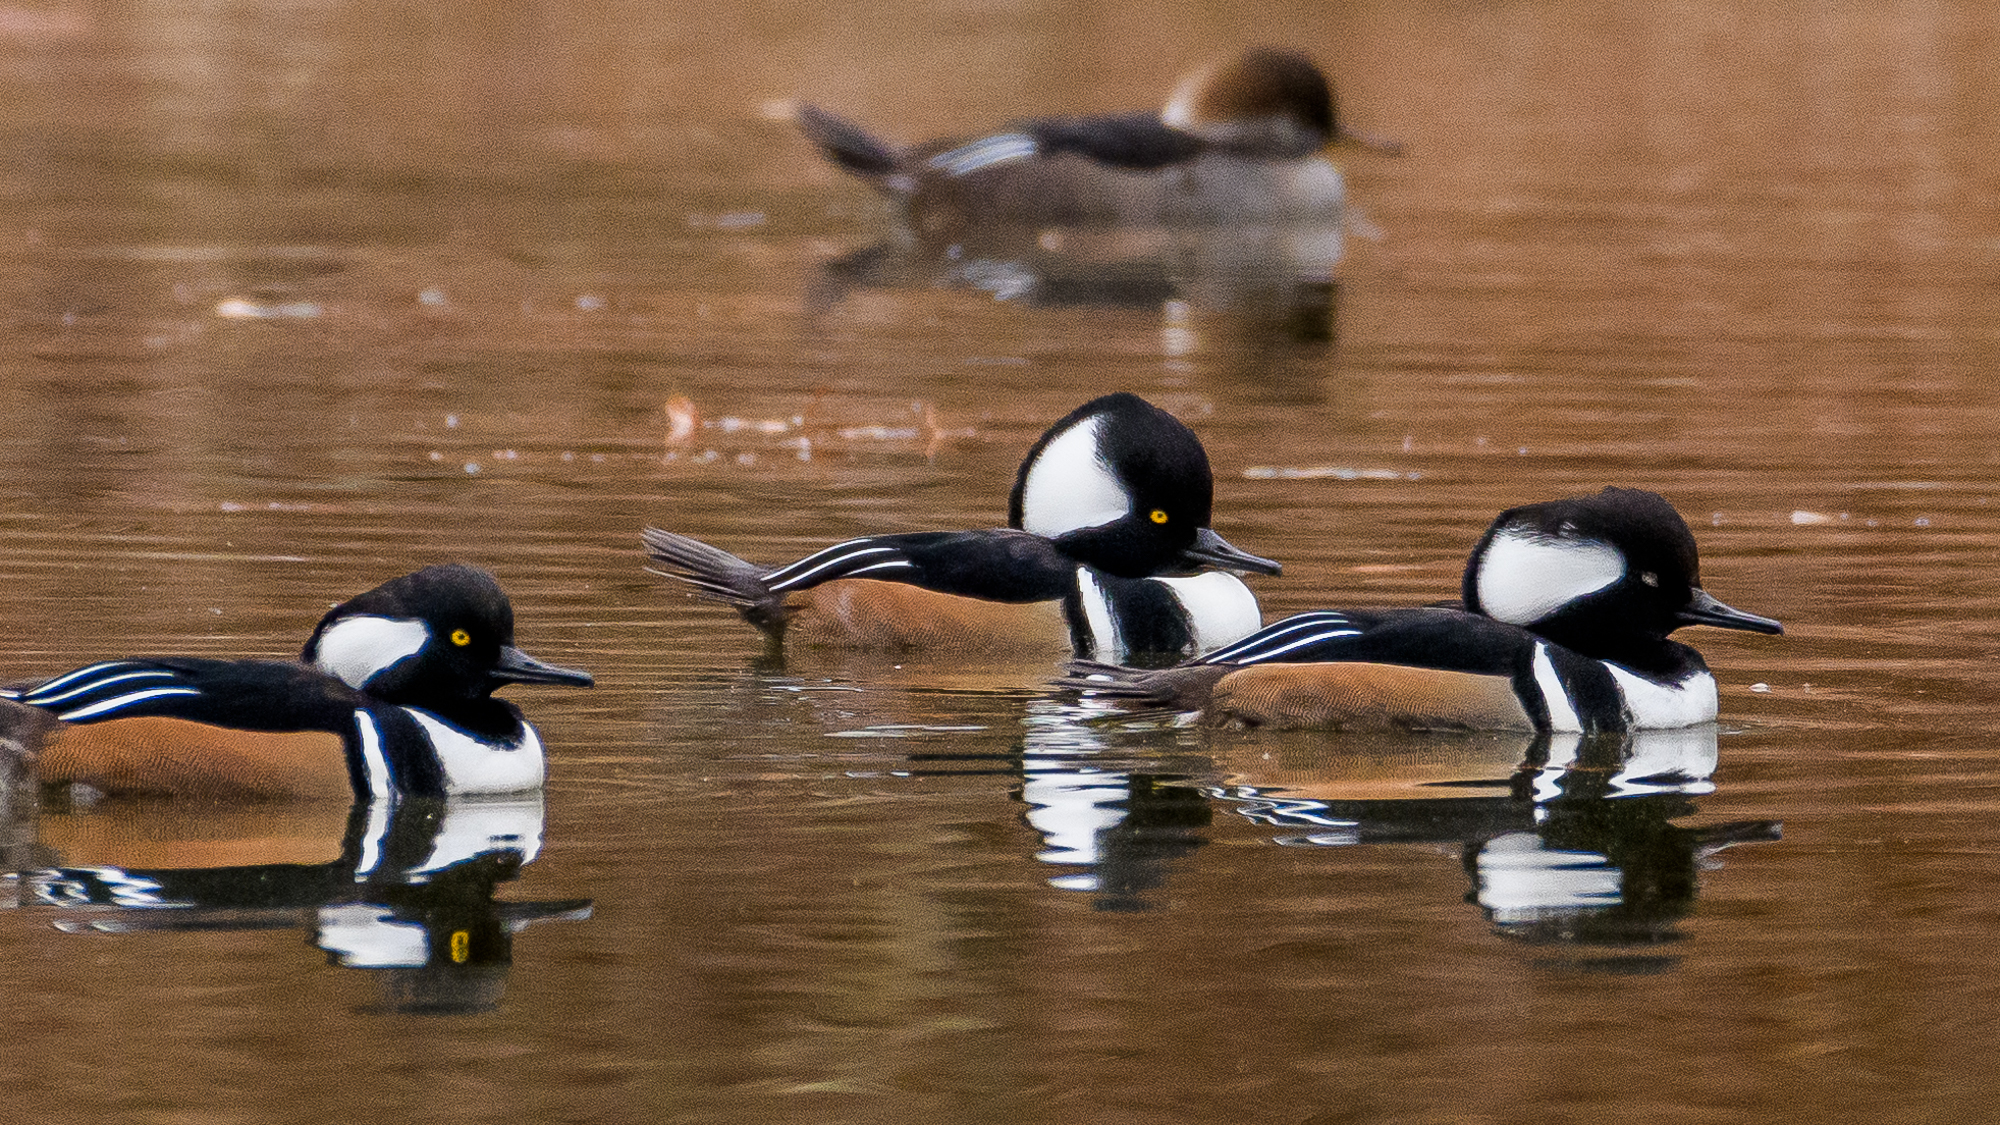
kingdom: Animalia
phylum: Chordata
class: Aves
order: Anseriformes
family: Anatidae
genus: Lophodytes
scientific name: Lophodytes cucullatus
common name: Hooded merganser
